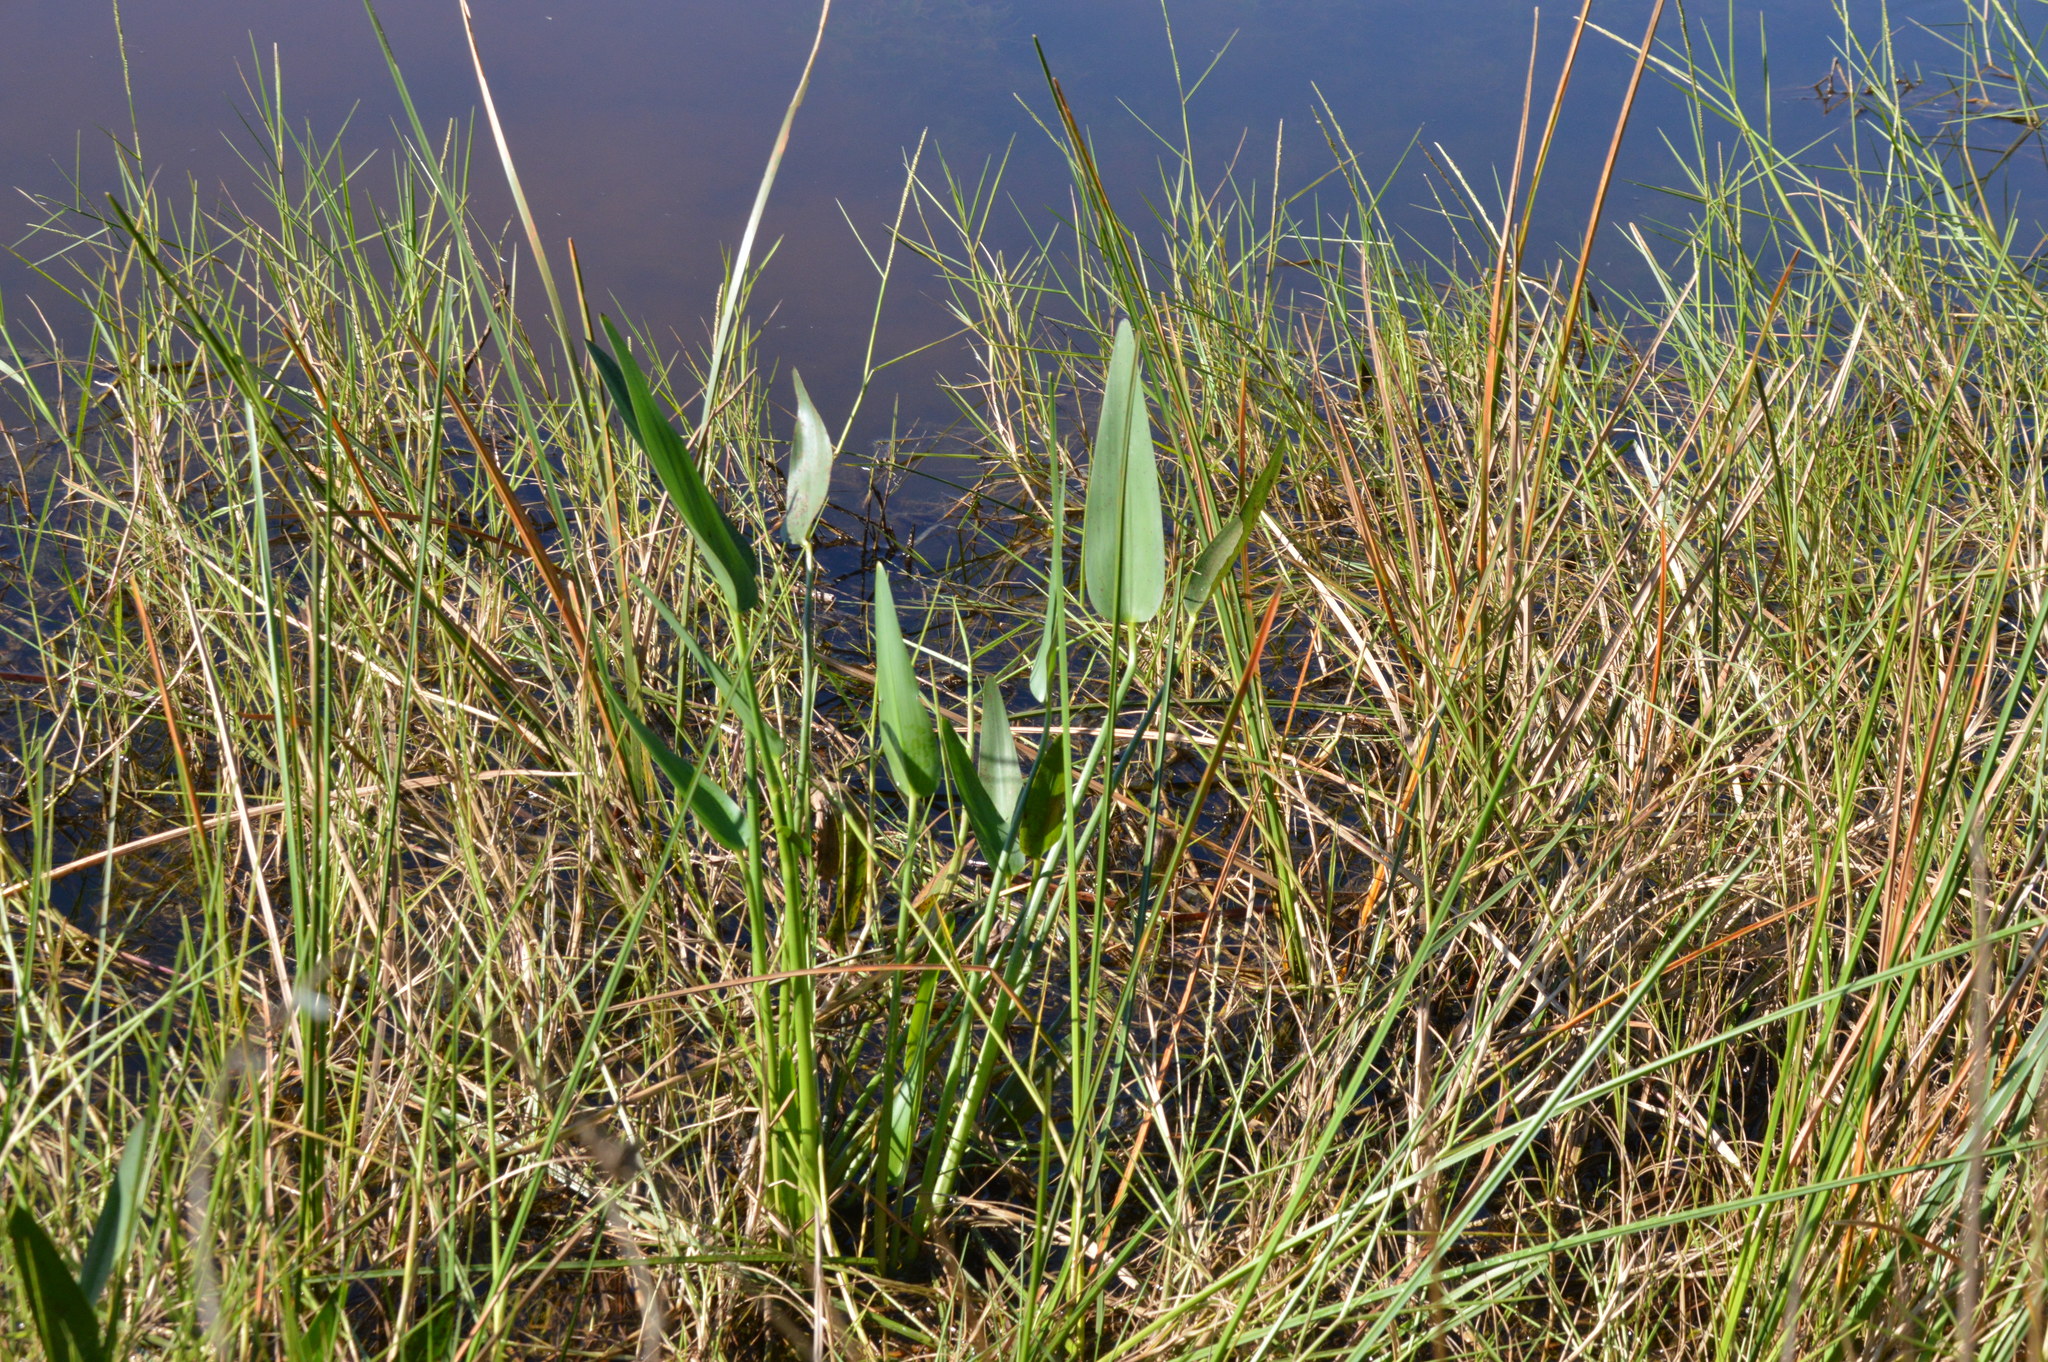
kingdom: Plantae
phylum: Tracheophyta
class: Liliopsida
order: Commelinales
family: Pontederiaceae
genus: Pontederia
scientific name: Pontederia cordata
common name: Pickerelweed
